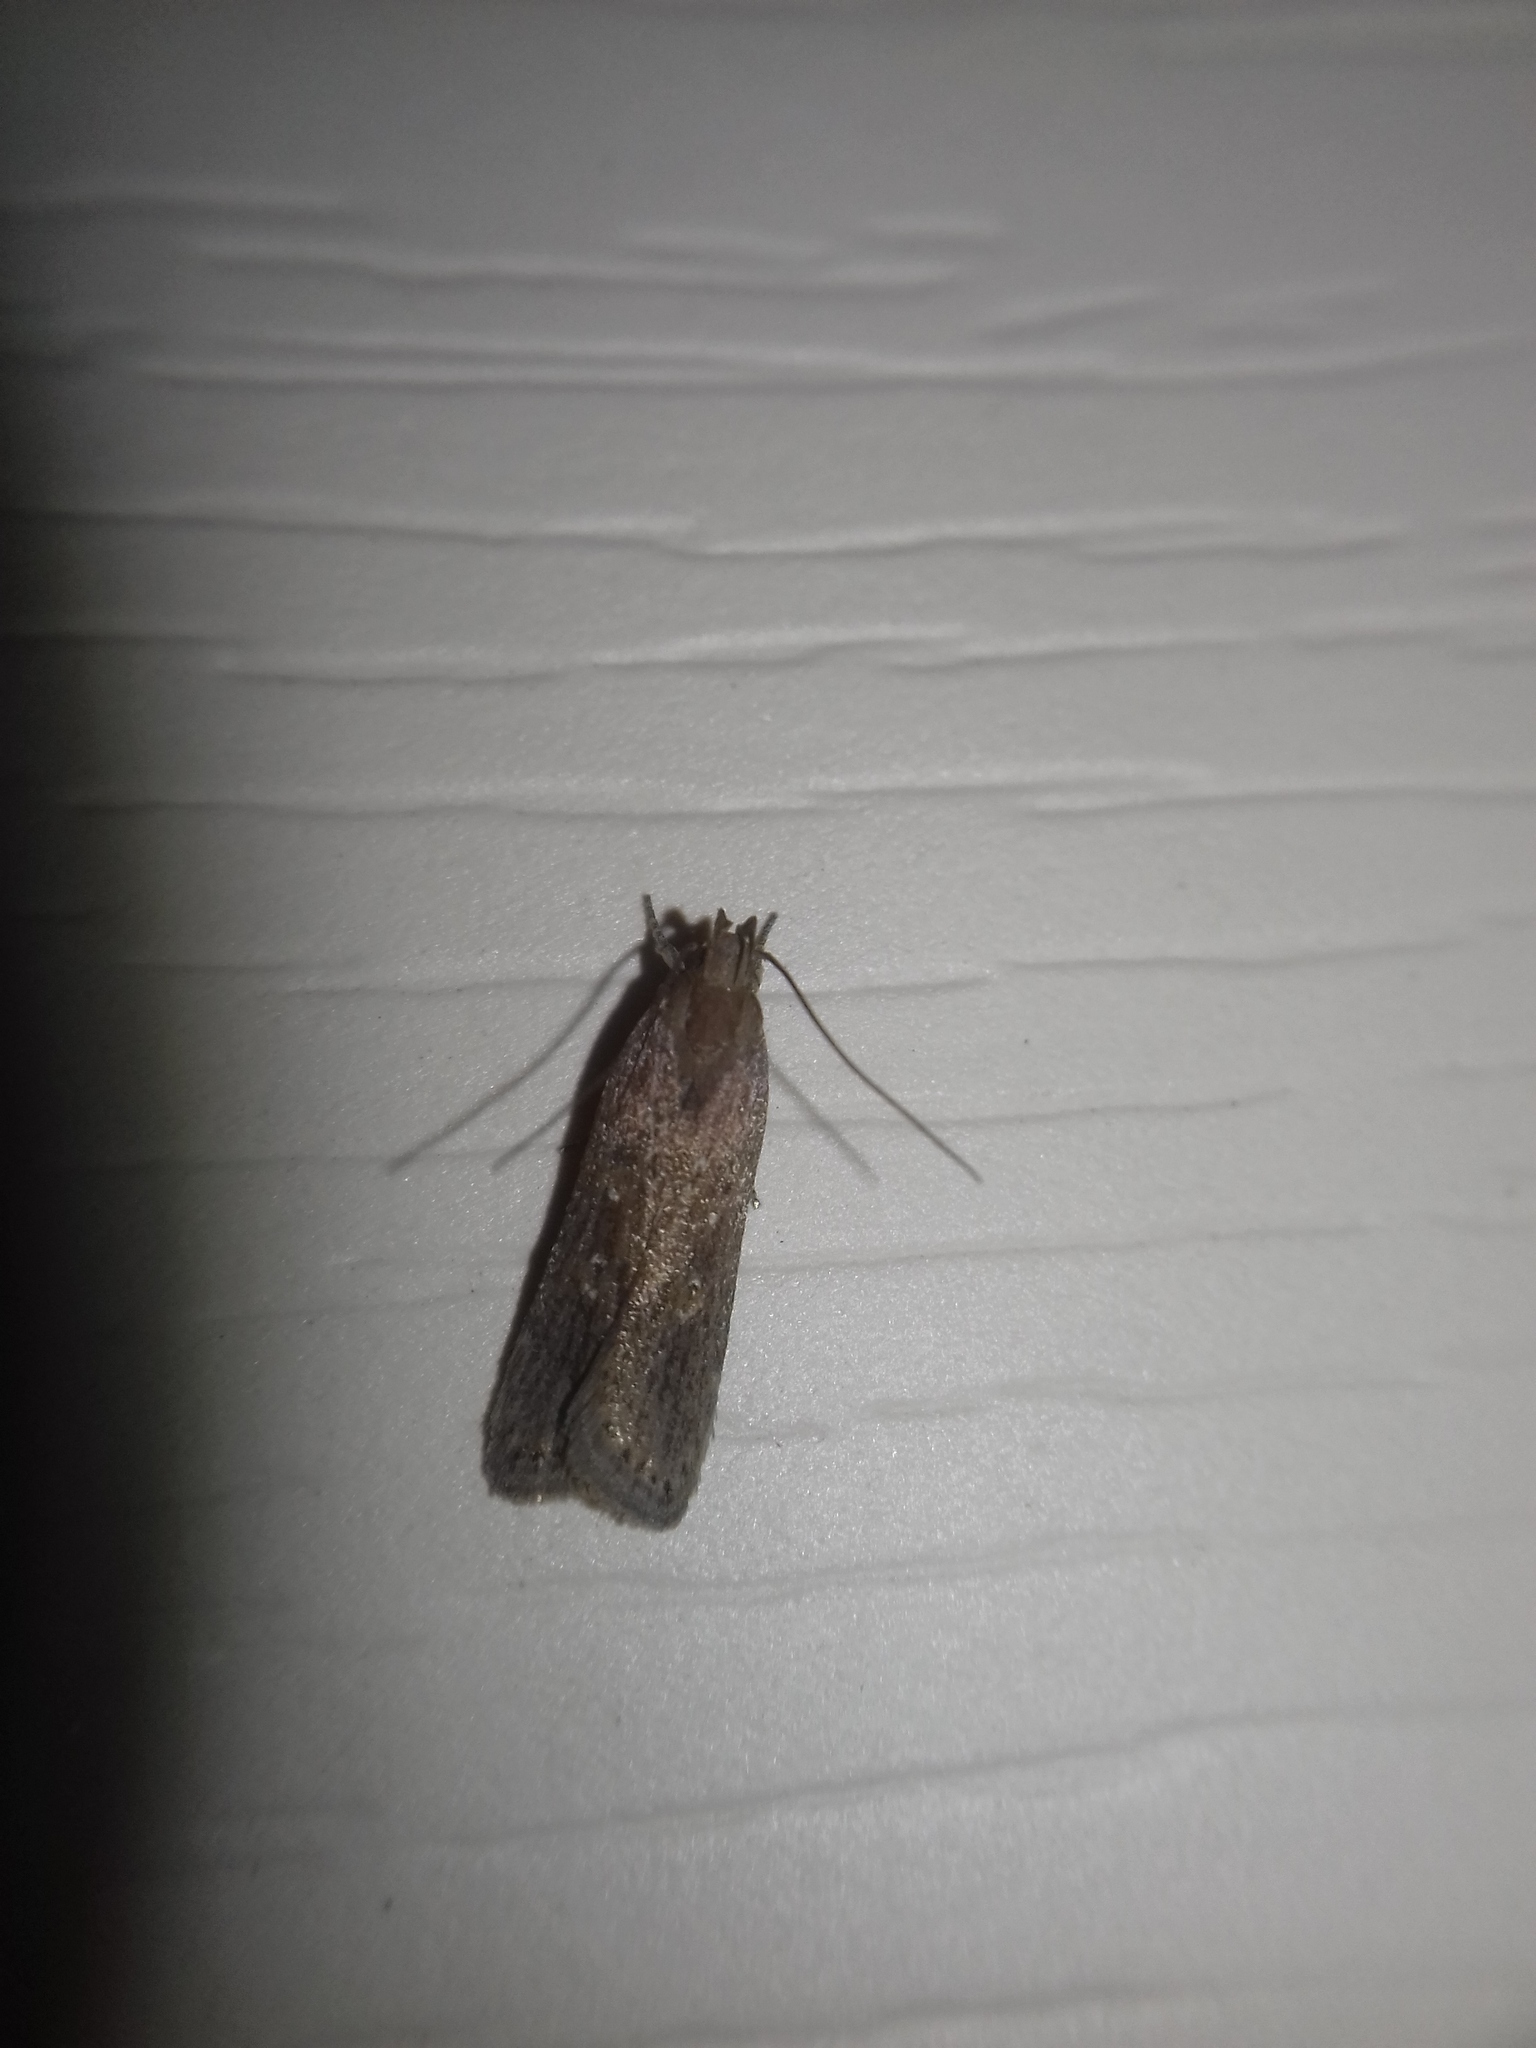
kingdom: Animalia
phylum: Arthropoda
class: Insecta
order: Lepidoptera
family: Gelechiidae
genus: Helcystogramma
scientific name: Helcystogramma triannulella
